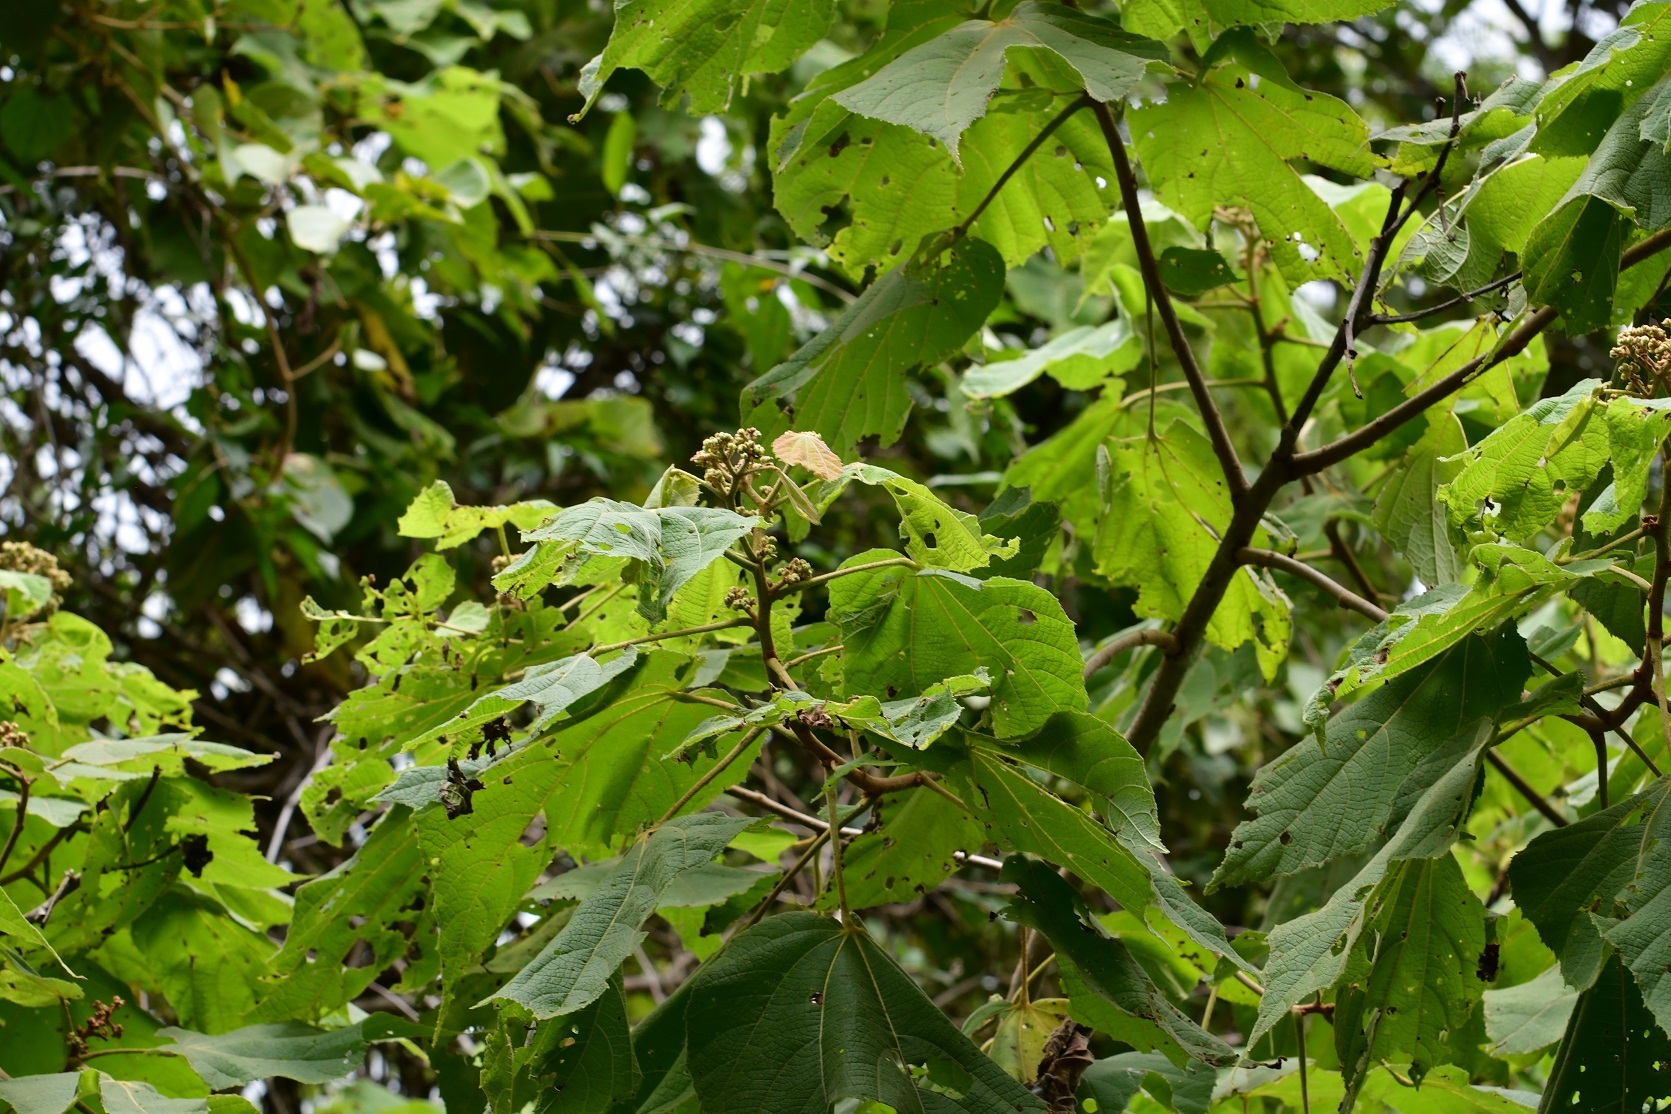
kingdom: Plantae
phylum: Tracheophyta
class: Magnoliopsida
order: Malvales
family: Malvaceae
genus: Heliocarpus
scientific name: Heliocarpus terebinthinaceus
